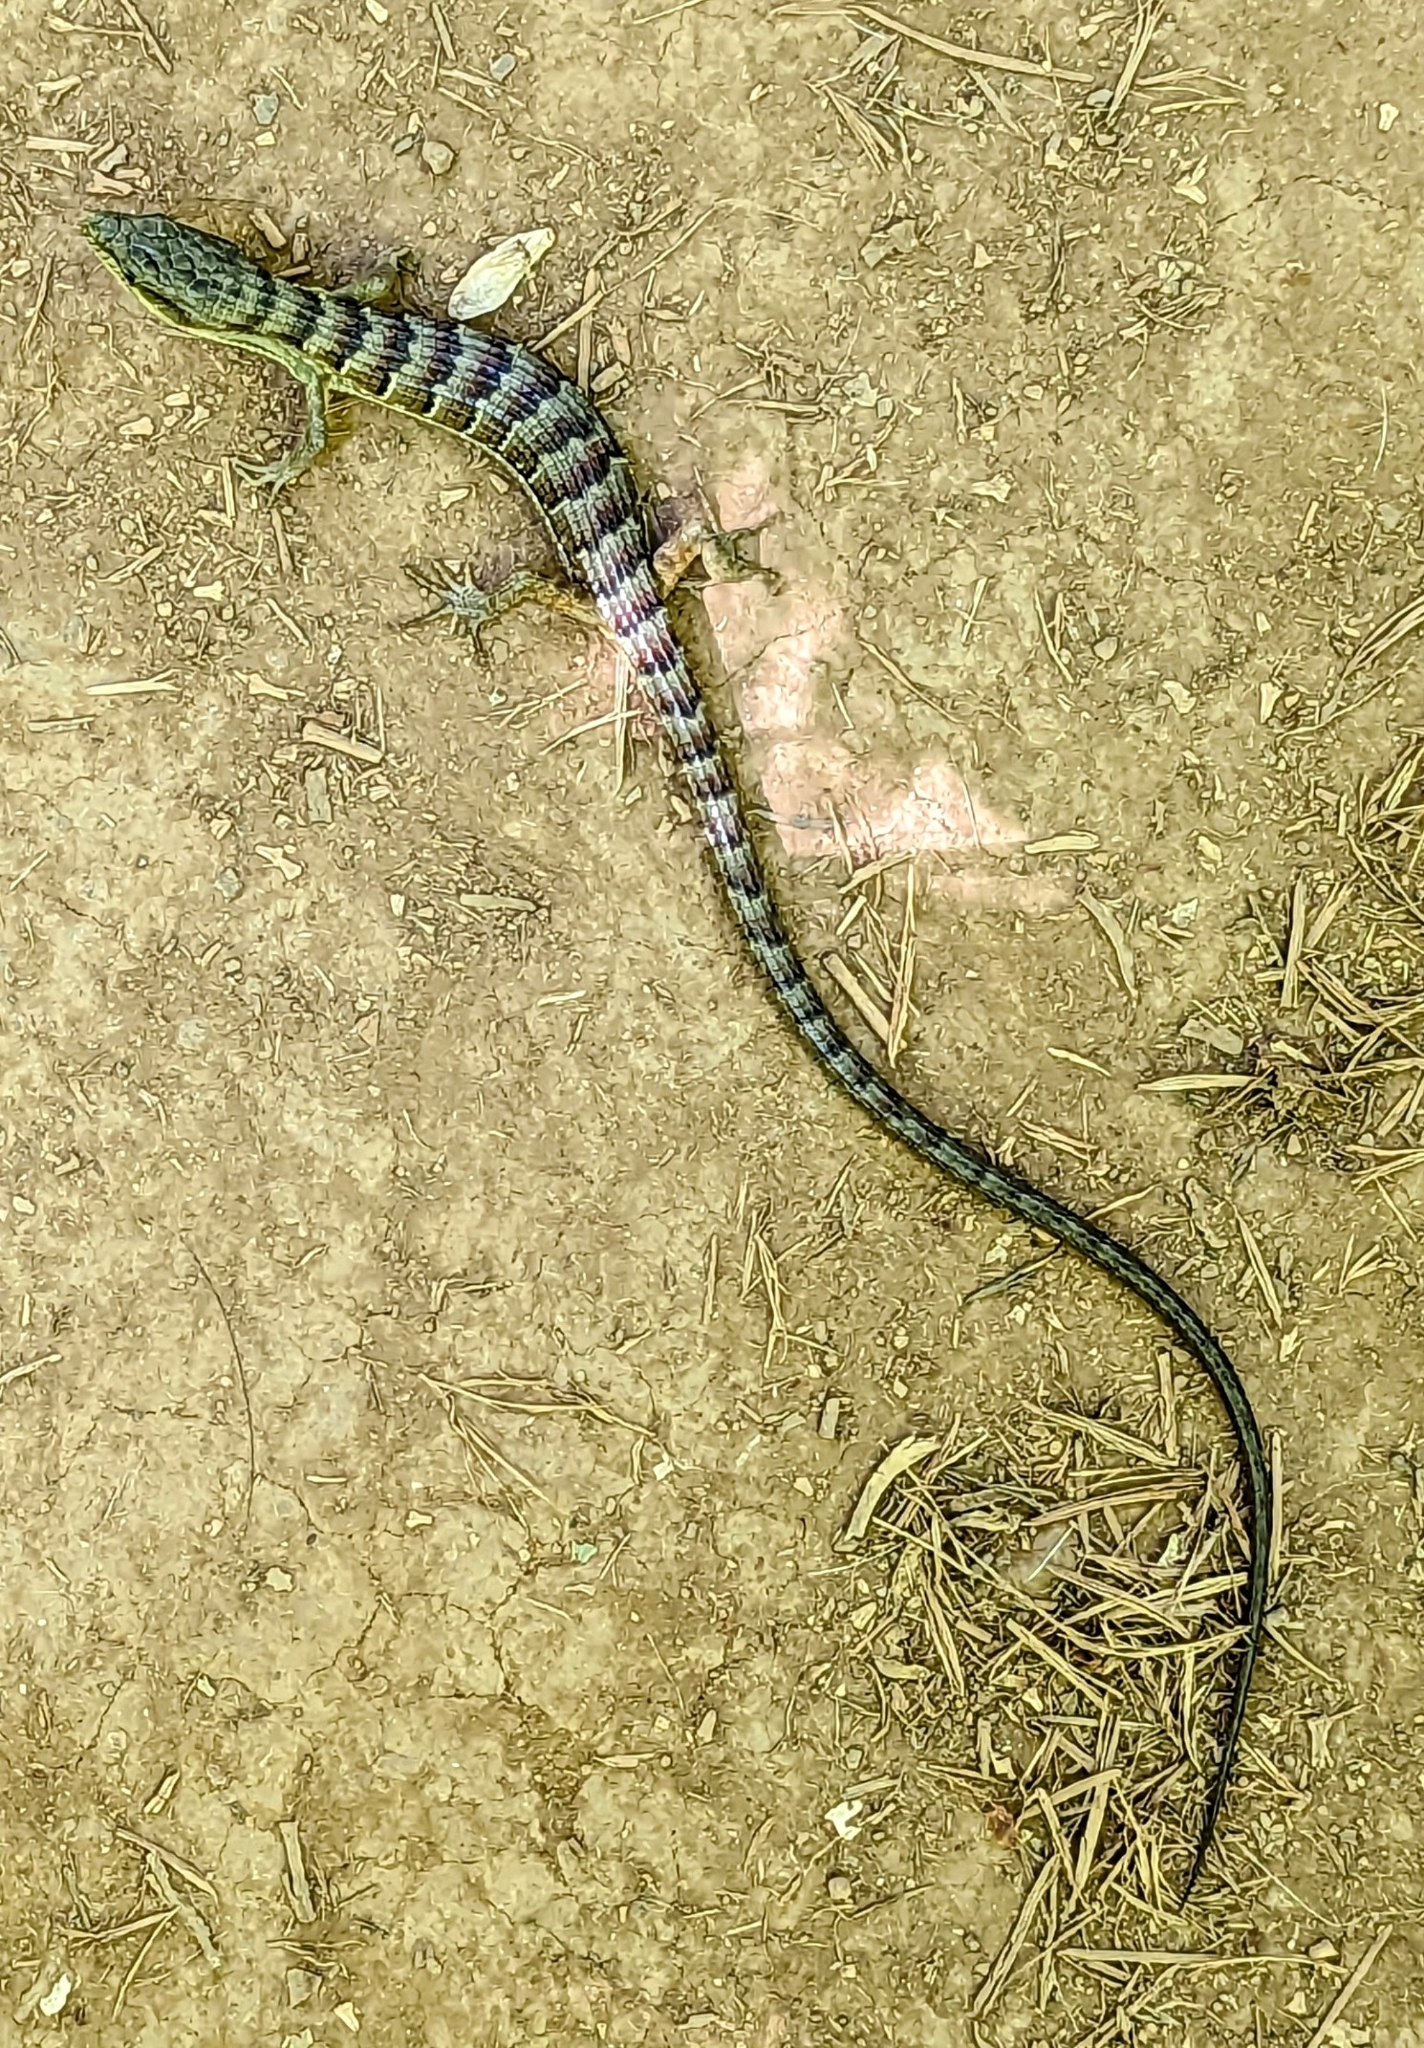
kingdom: Animalia
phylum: Chordata
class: Squamata
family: Anguidae
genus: Elgaria
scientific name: Elgaria multicarinata
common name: Southern alligator lizard
